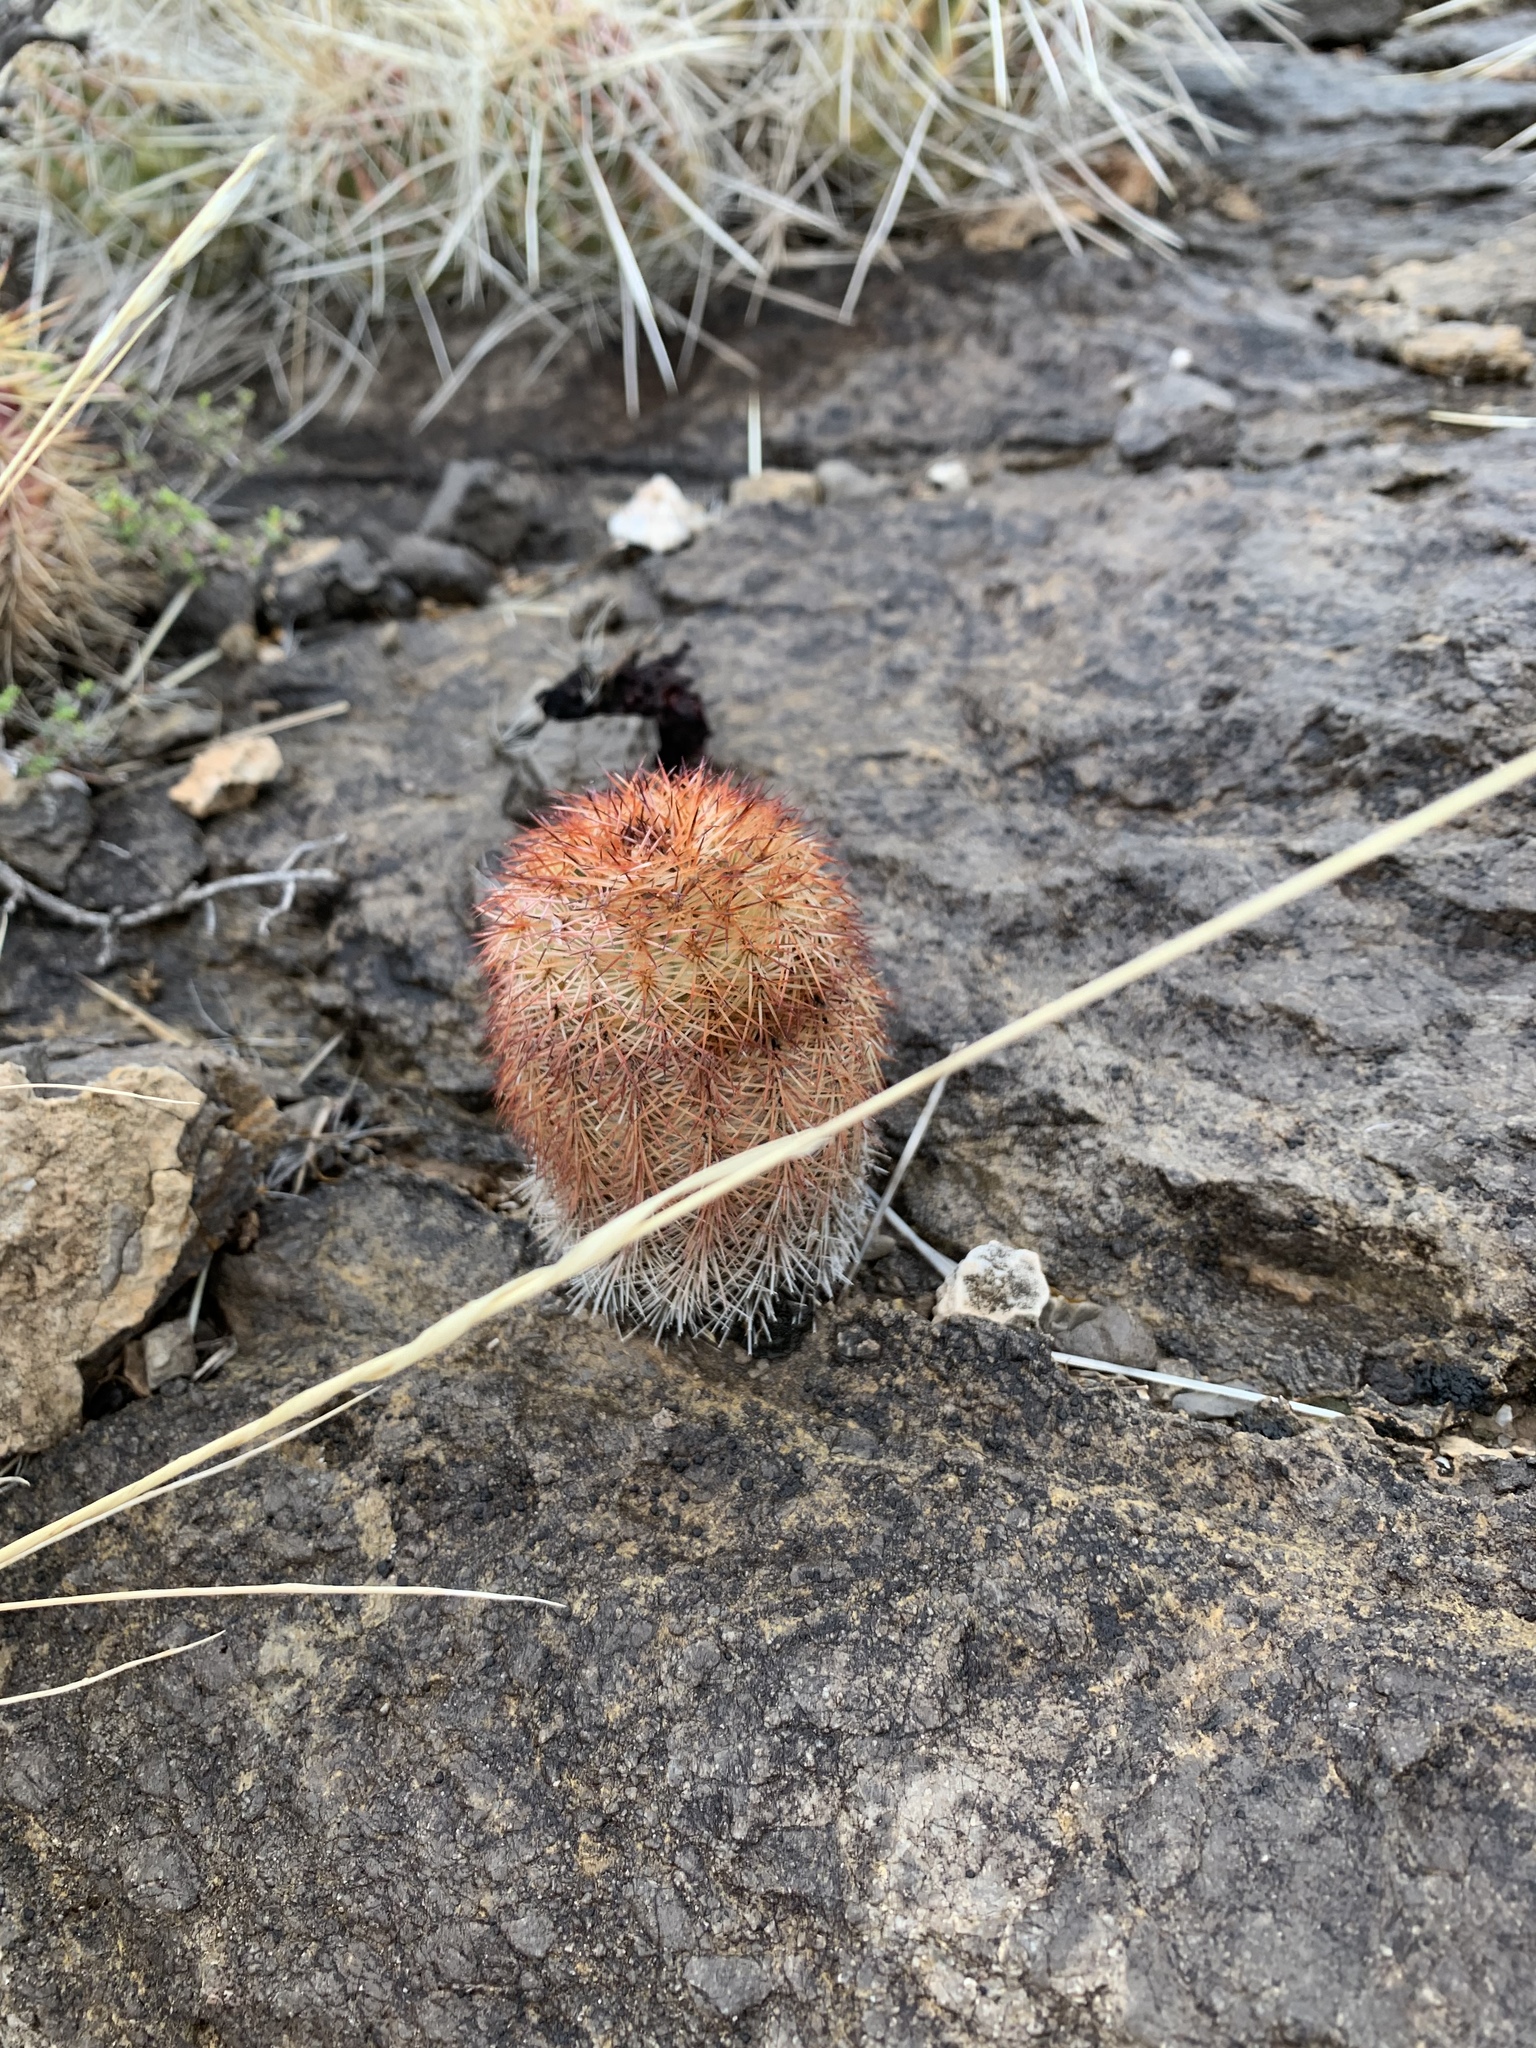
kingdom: Plantae
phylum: Tracheophyta
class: Magnoliopsida
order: Caryophyllales
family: Cactaceae
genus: Echinocereus
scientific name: Echinocereus dasyacanthus
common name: Spiny hedgehog cactus
